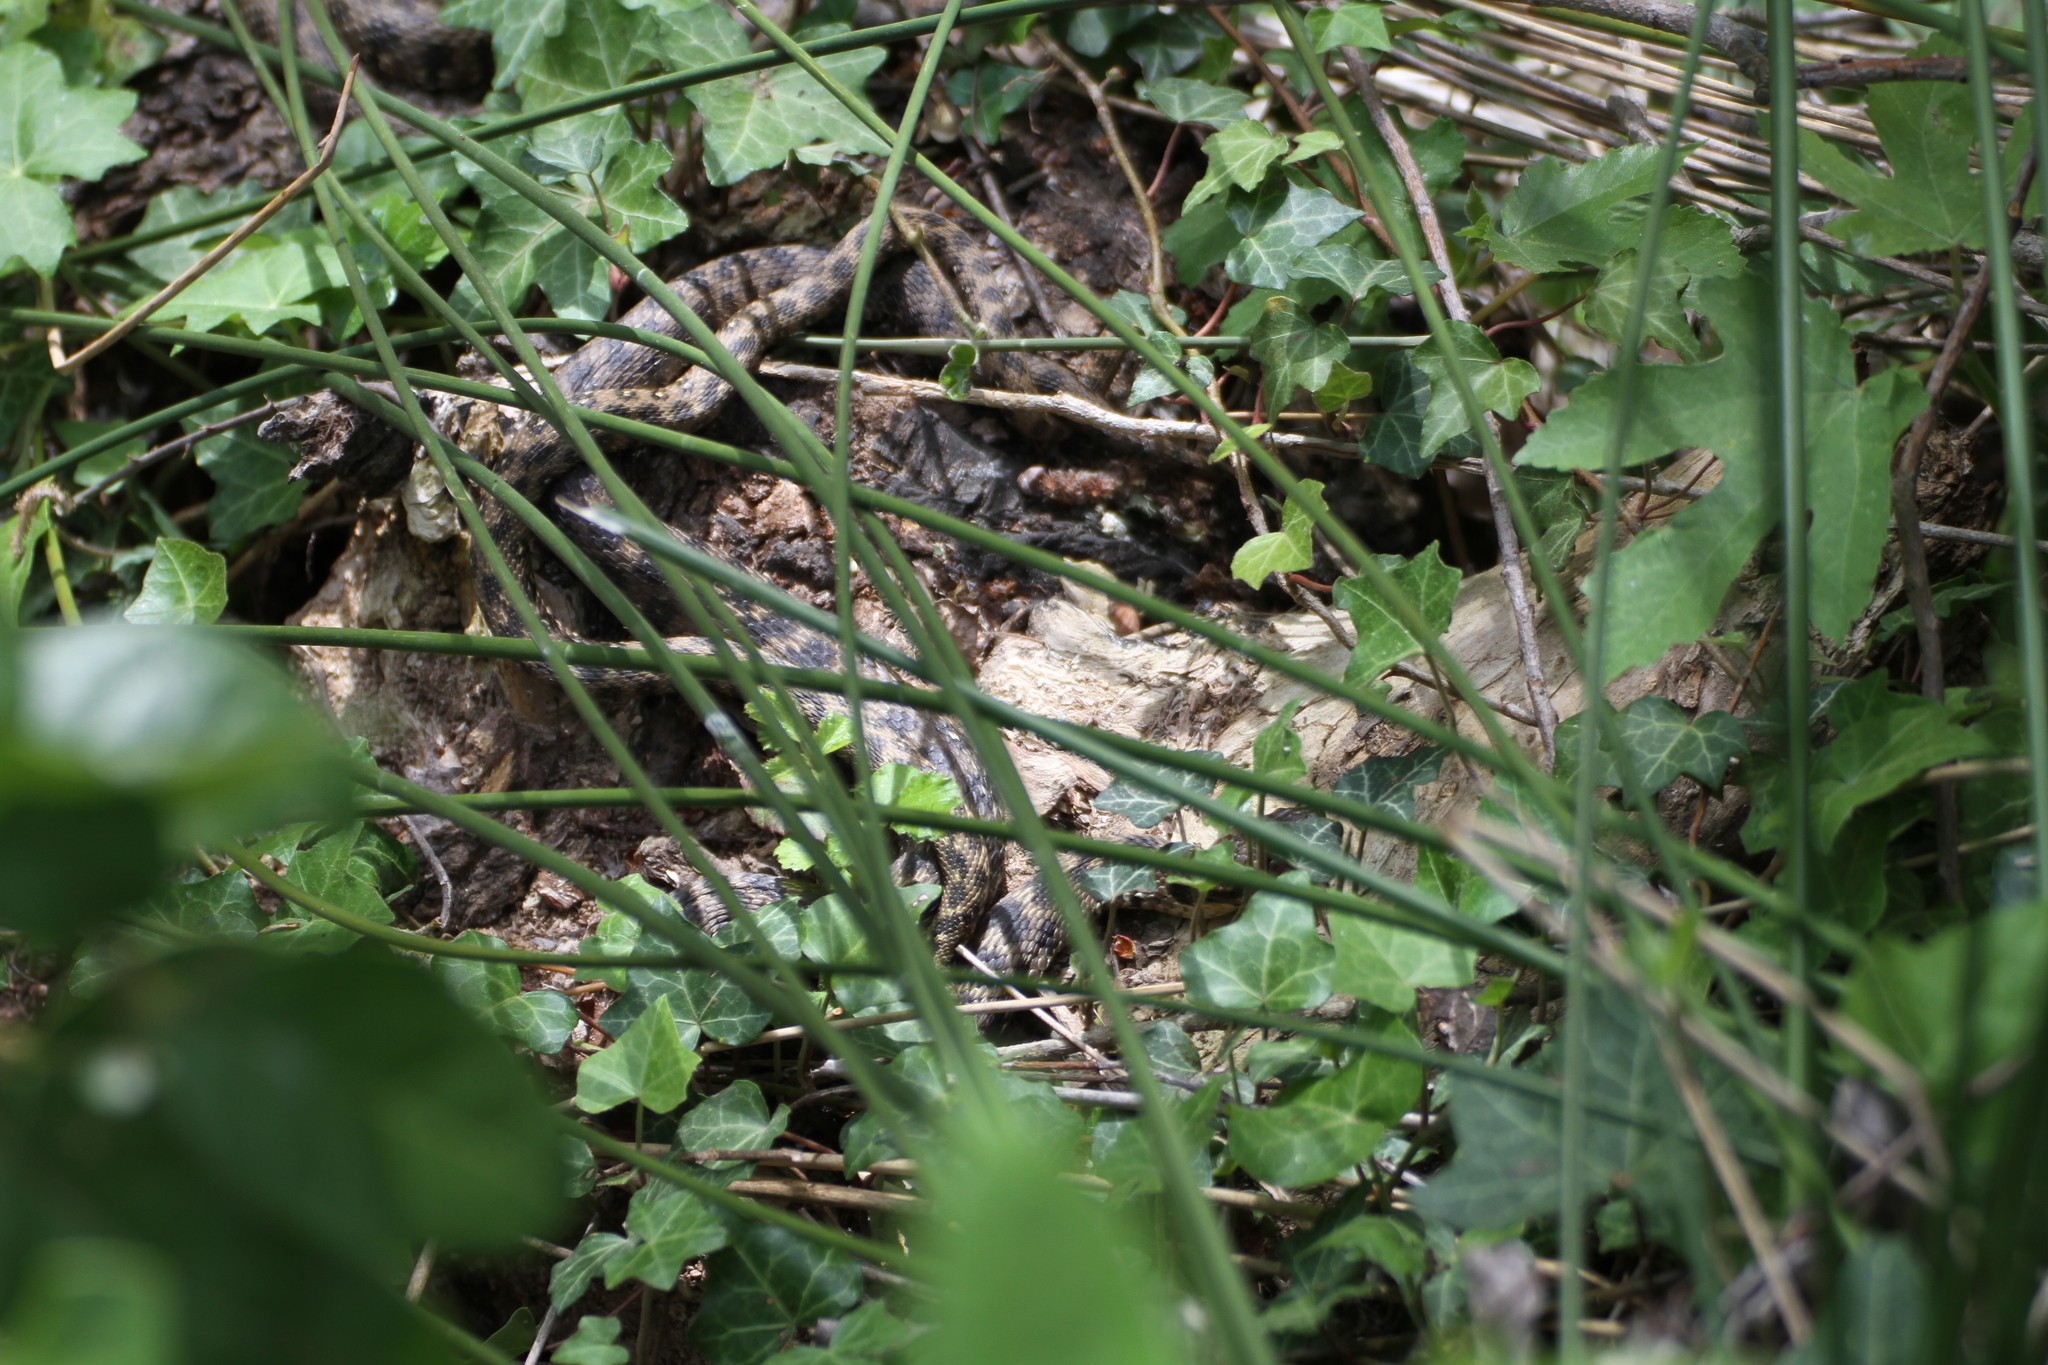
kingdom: Animalia
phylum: Chordata
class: Squamata
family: Colubridae
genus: Natrix
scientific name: Natrix maura
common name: Viperine water snake
